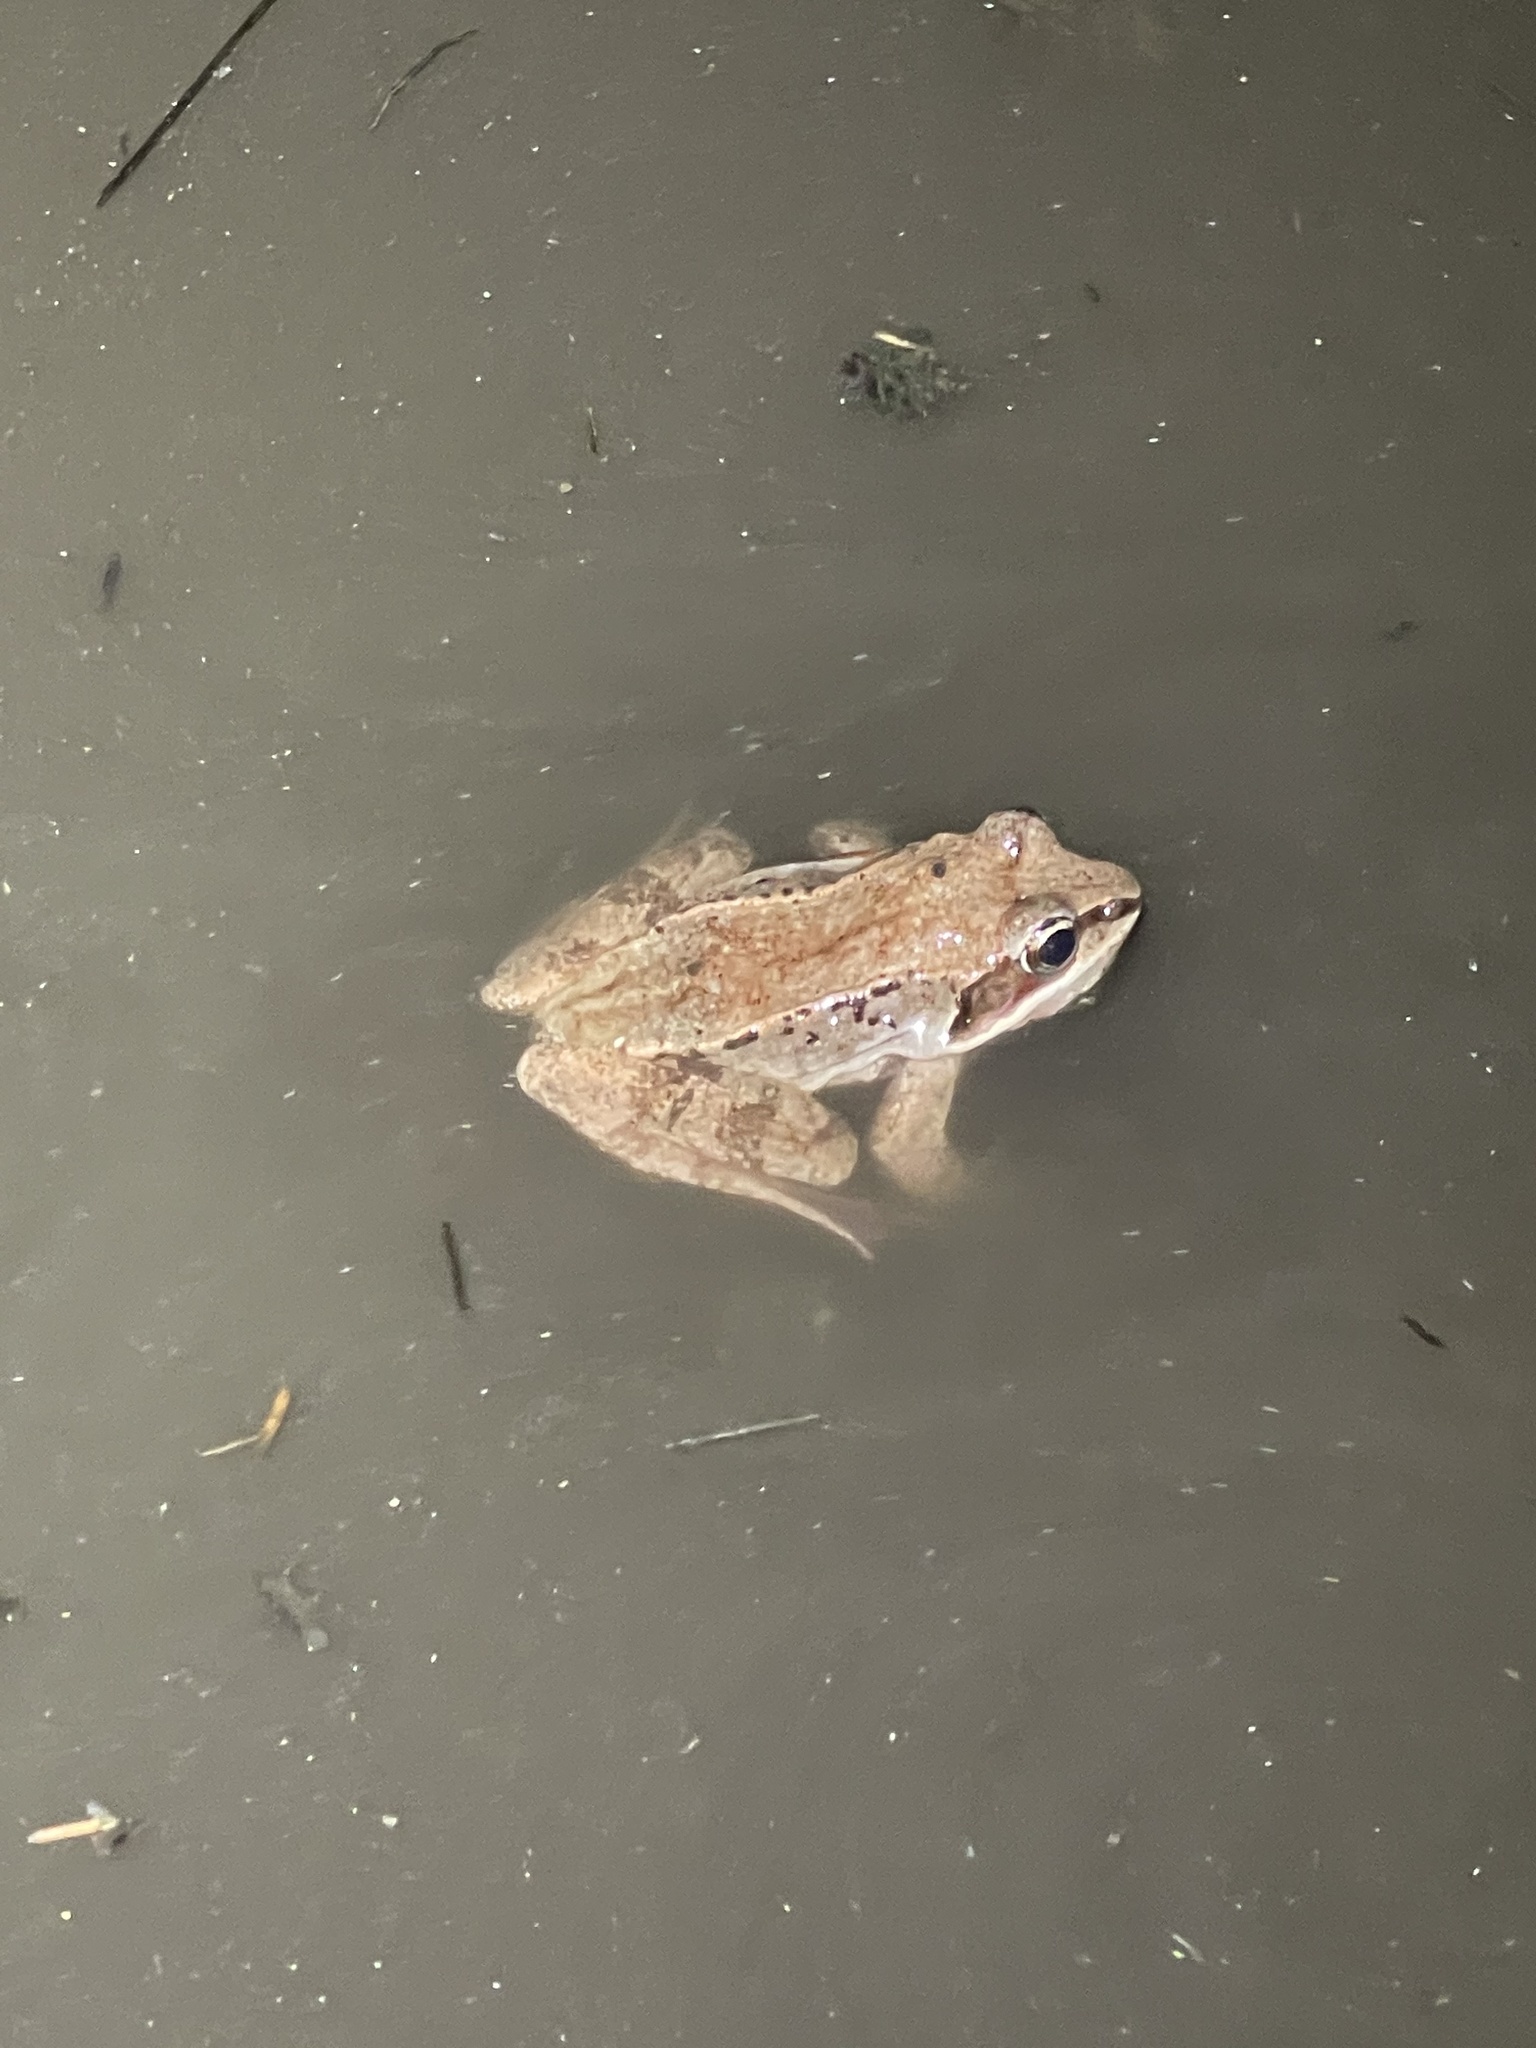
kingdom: Animalia
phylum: Chordata
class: Amphibia
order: Anura
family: Ranidae
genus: Lithobates
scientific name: Lithobates sylvaticus
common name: Wood frog
